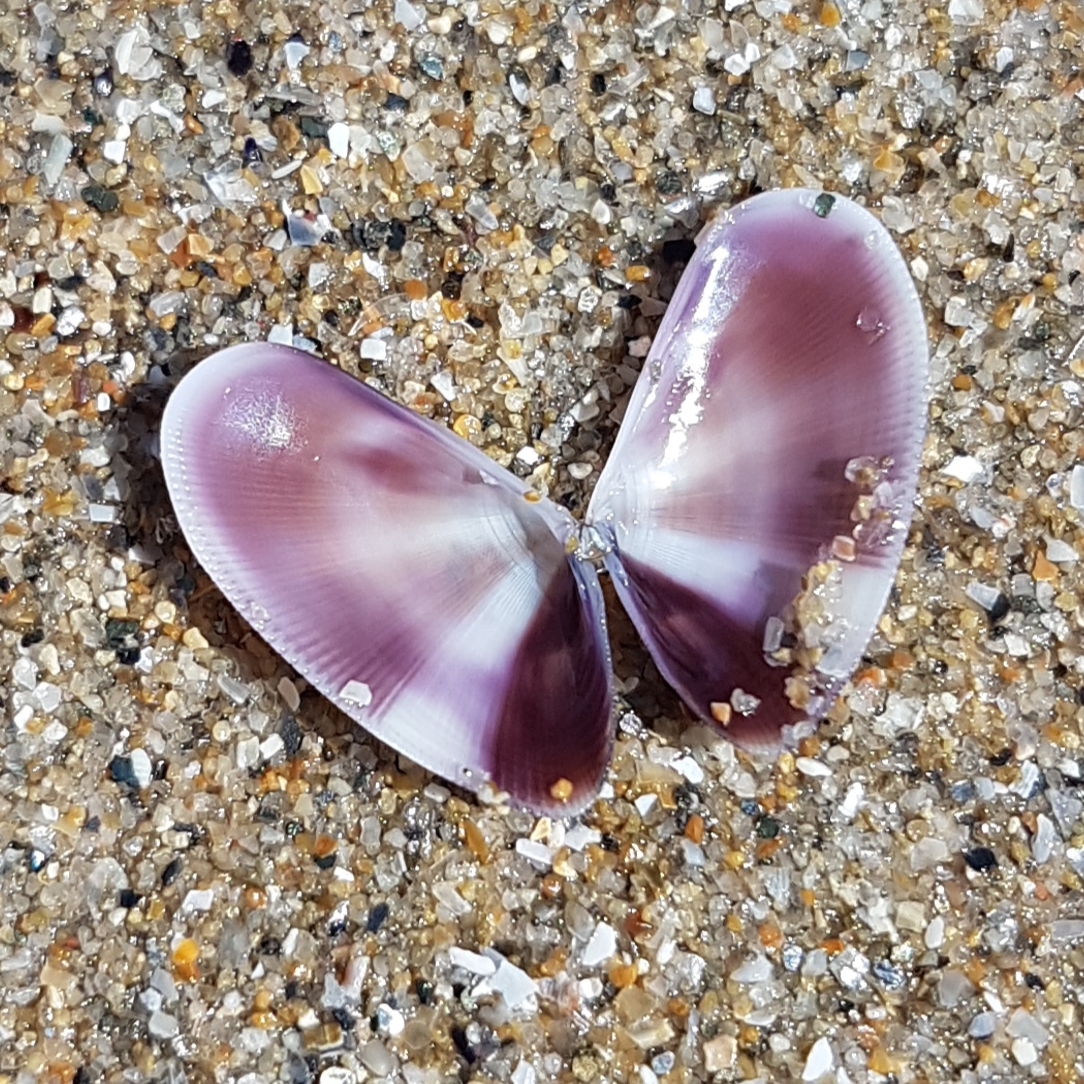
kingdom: Animalia
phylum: Mollusca
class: Bivalvia
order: Cardiida
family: Donacidae
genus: Donax
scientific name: Donax semistriatus
